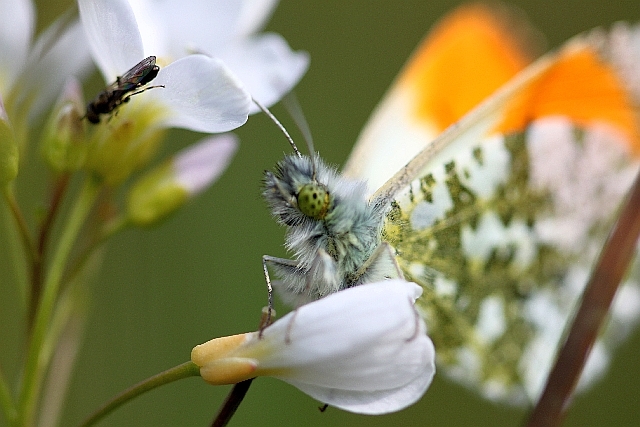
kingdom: Animalia
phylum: Arthropoda
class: Insecta
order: Lepidoptera
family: Pieridae
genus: Anthocharis
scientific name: Anthocharis cardamines
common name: Orange-tip
